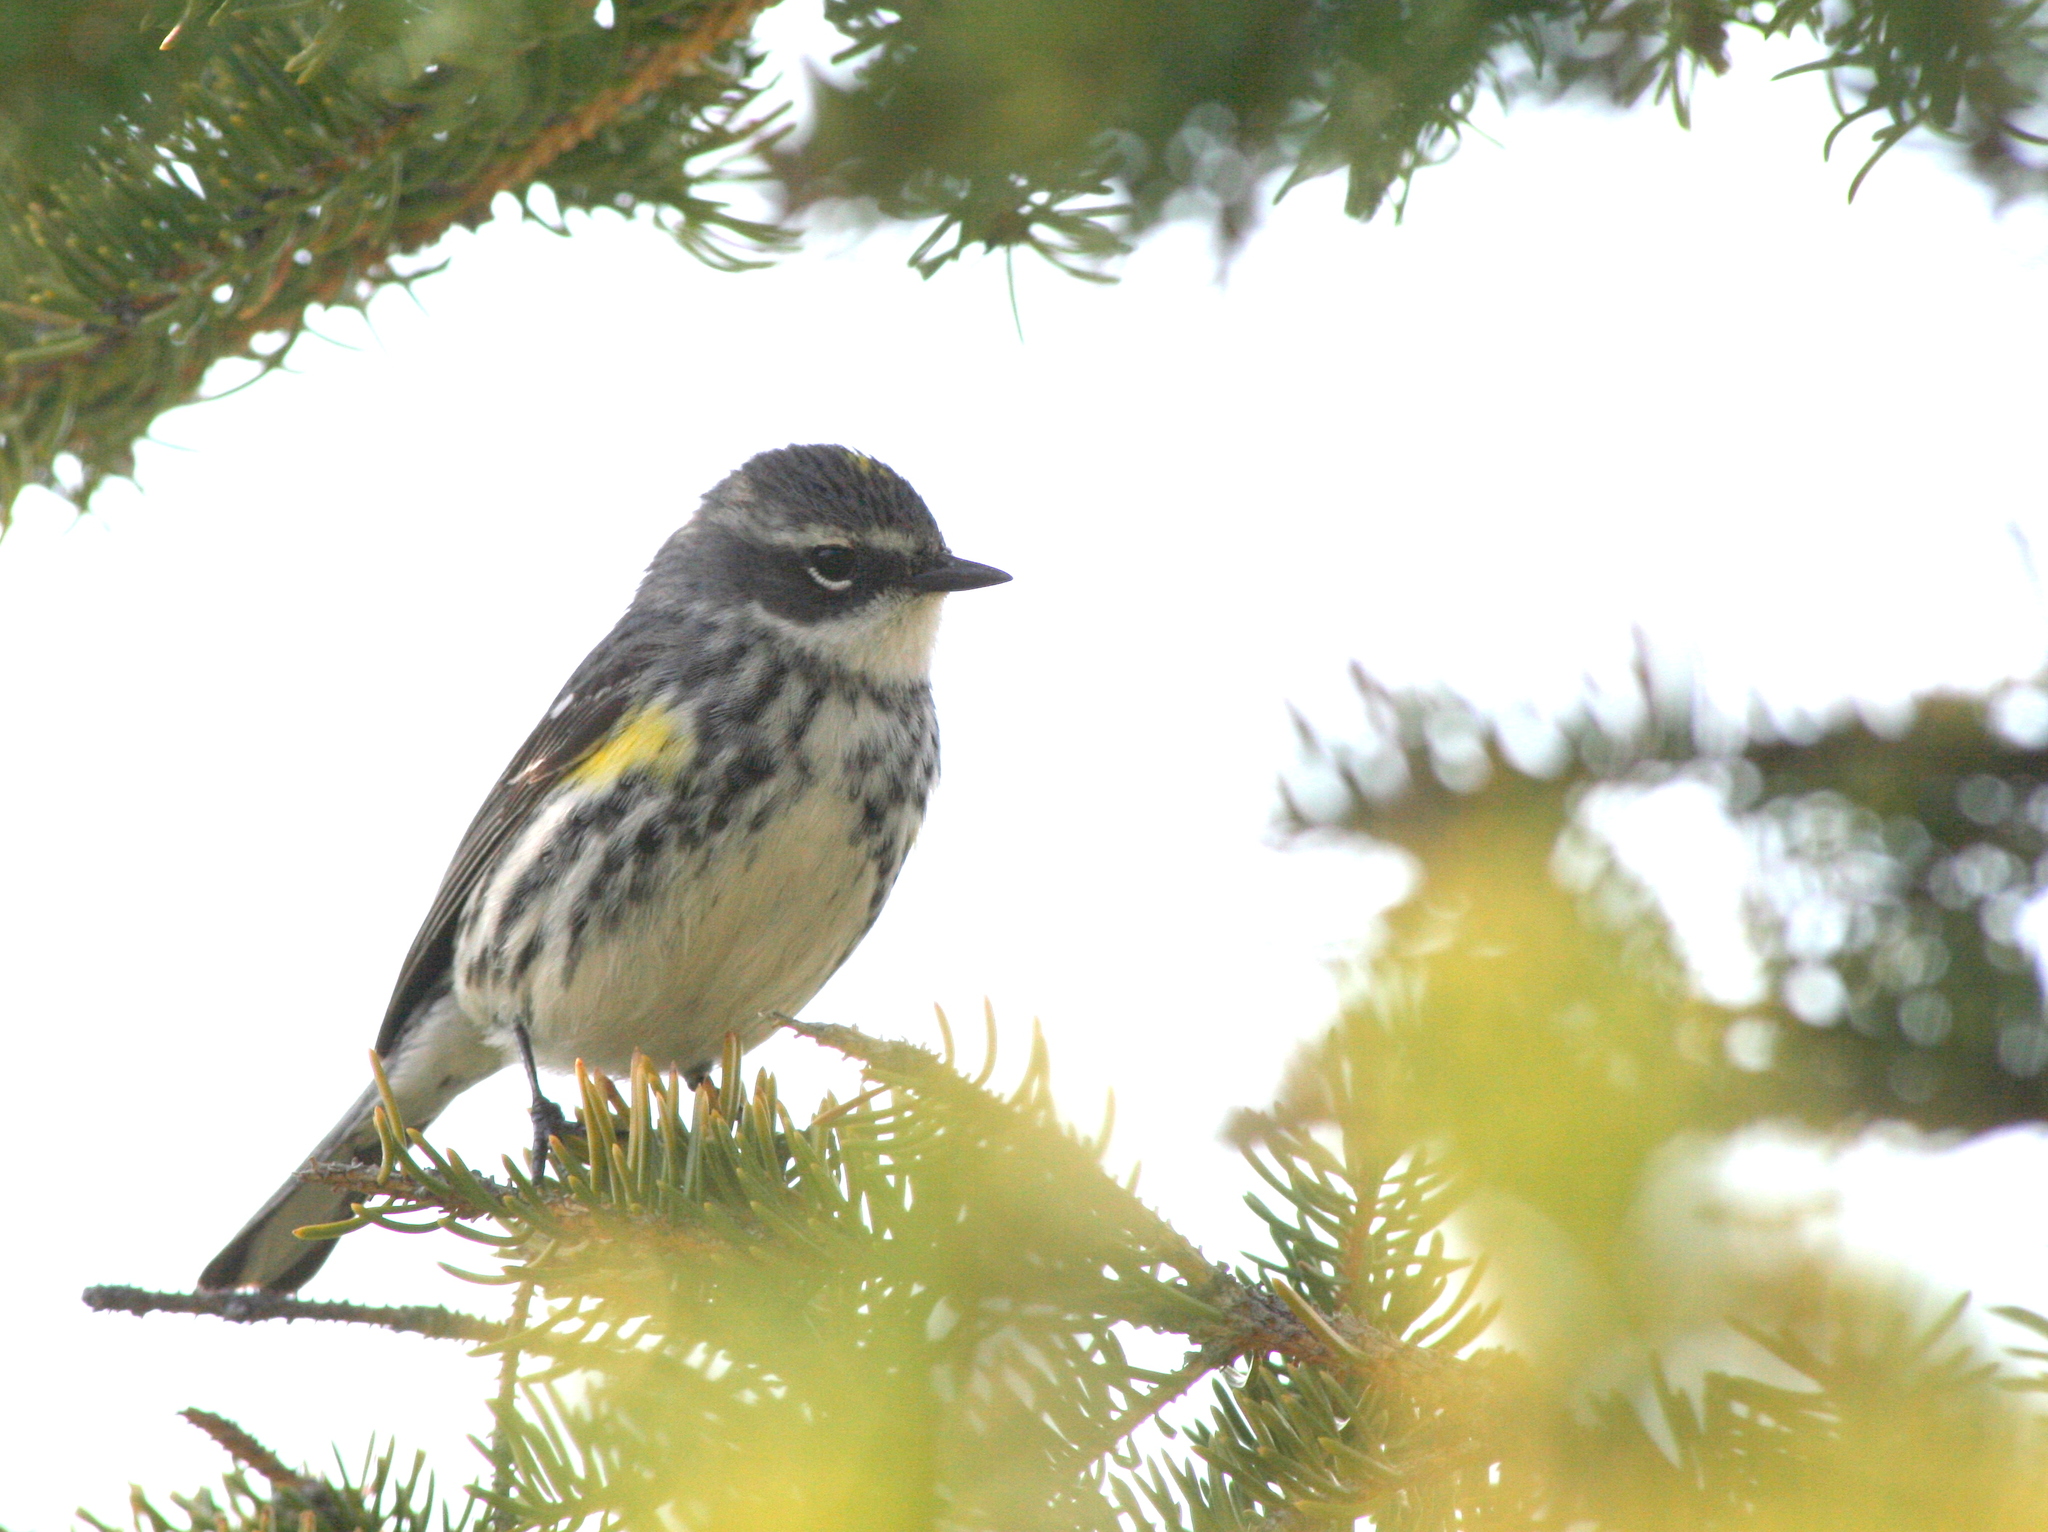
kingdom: Animalia
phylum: Chordata
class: Aves
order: Passeriformes
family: Parulidae
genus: Setophaga
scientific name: Setophaga coronata
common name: Myrtle warbler
